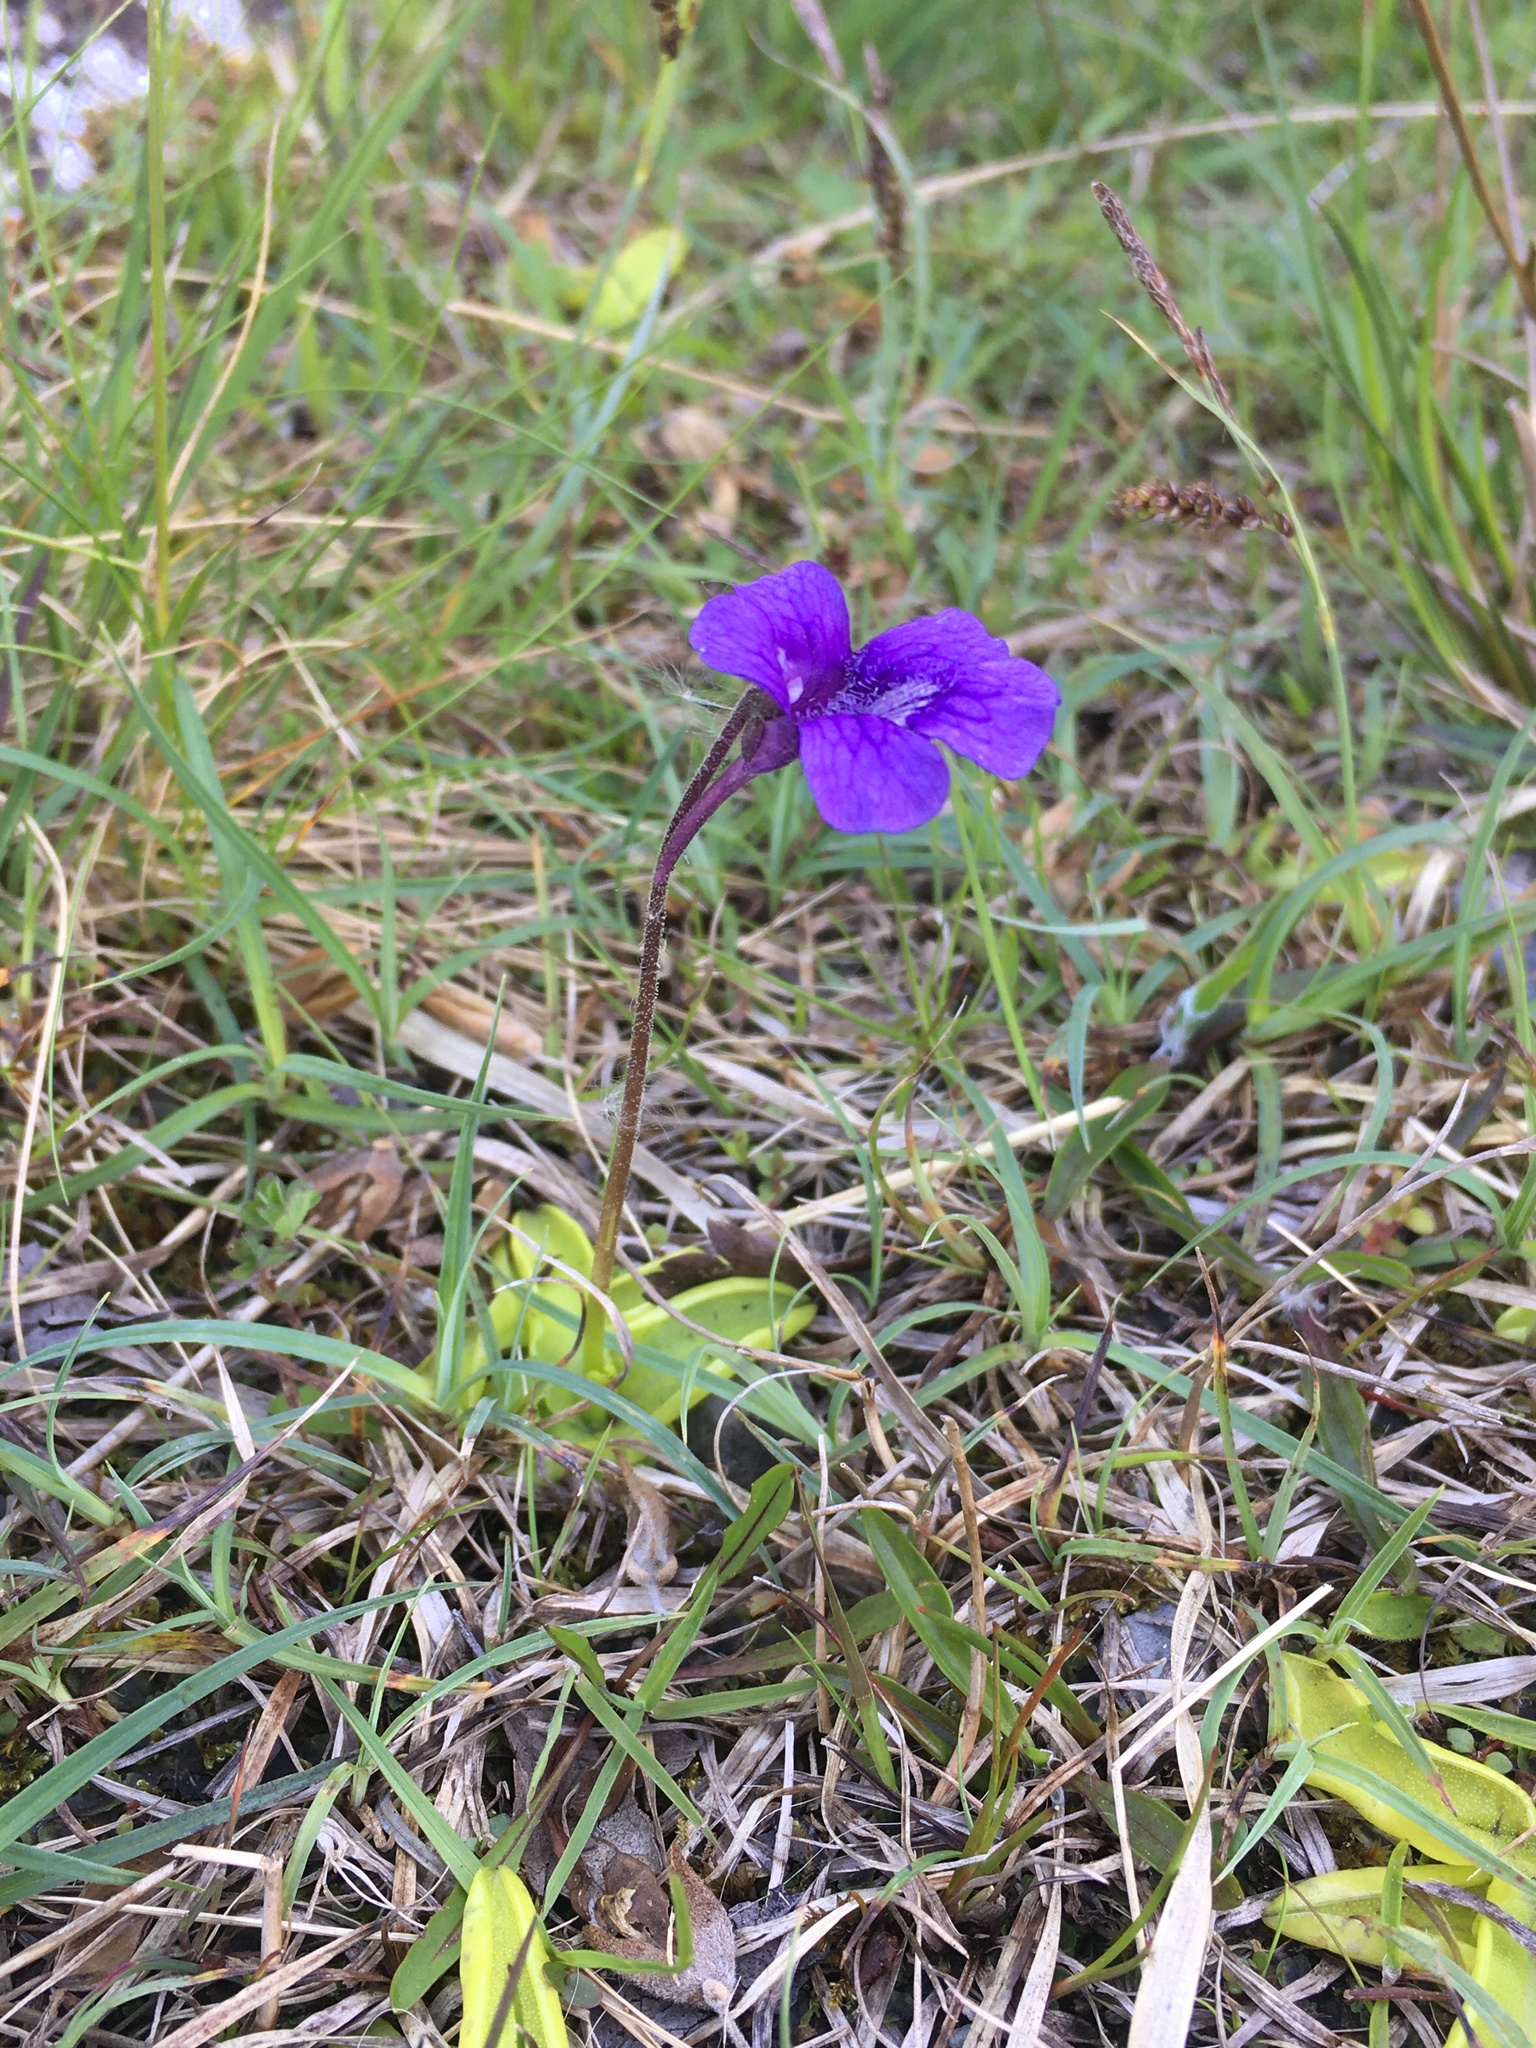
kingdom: Plantae
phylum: Tracheophyta
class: Magnoliopsida
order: Lamiales
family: Lentibulariaceae
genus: Pinguicula
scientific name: Pinguicula grandiflora
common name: Large-flowered butterwort
